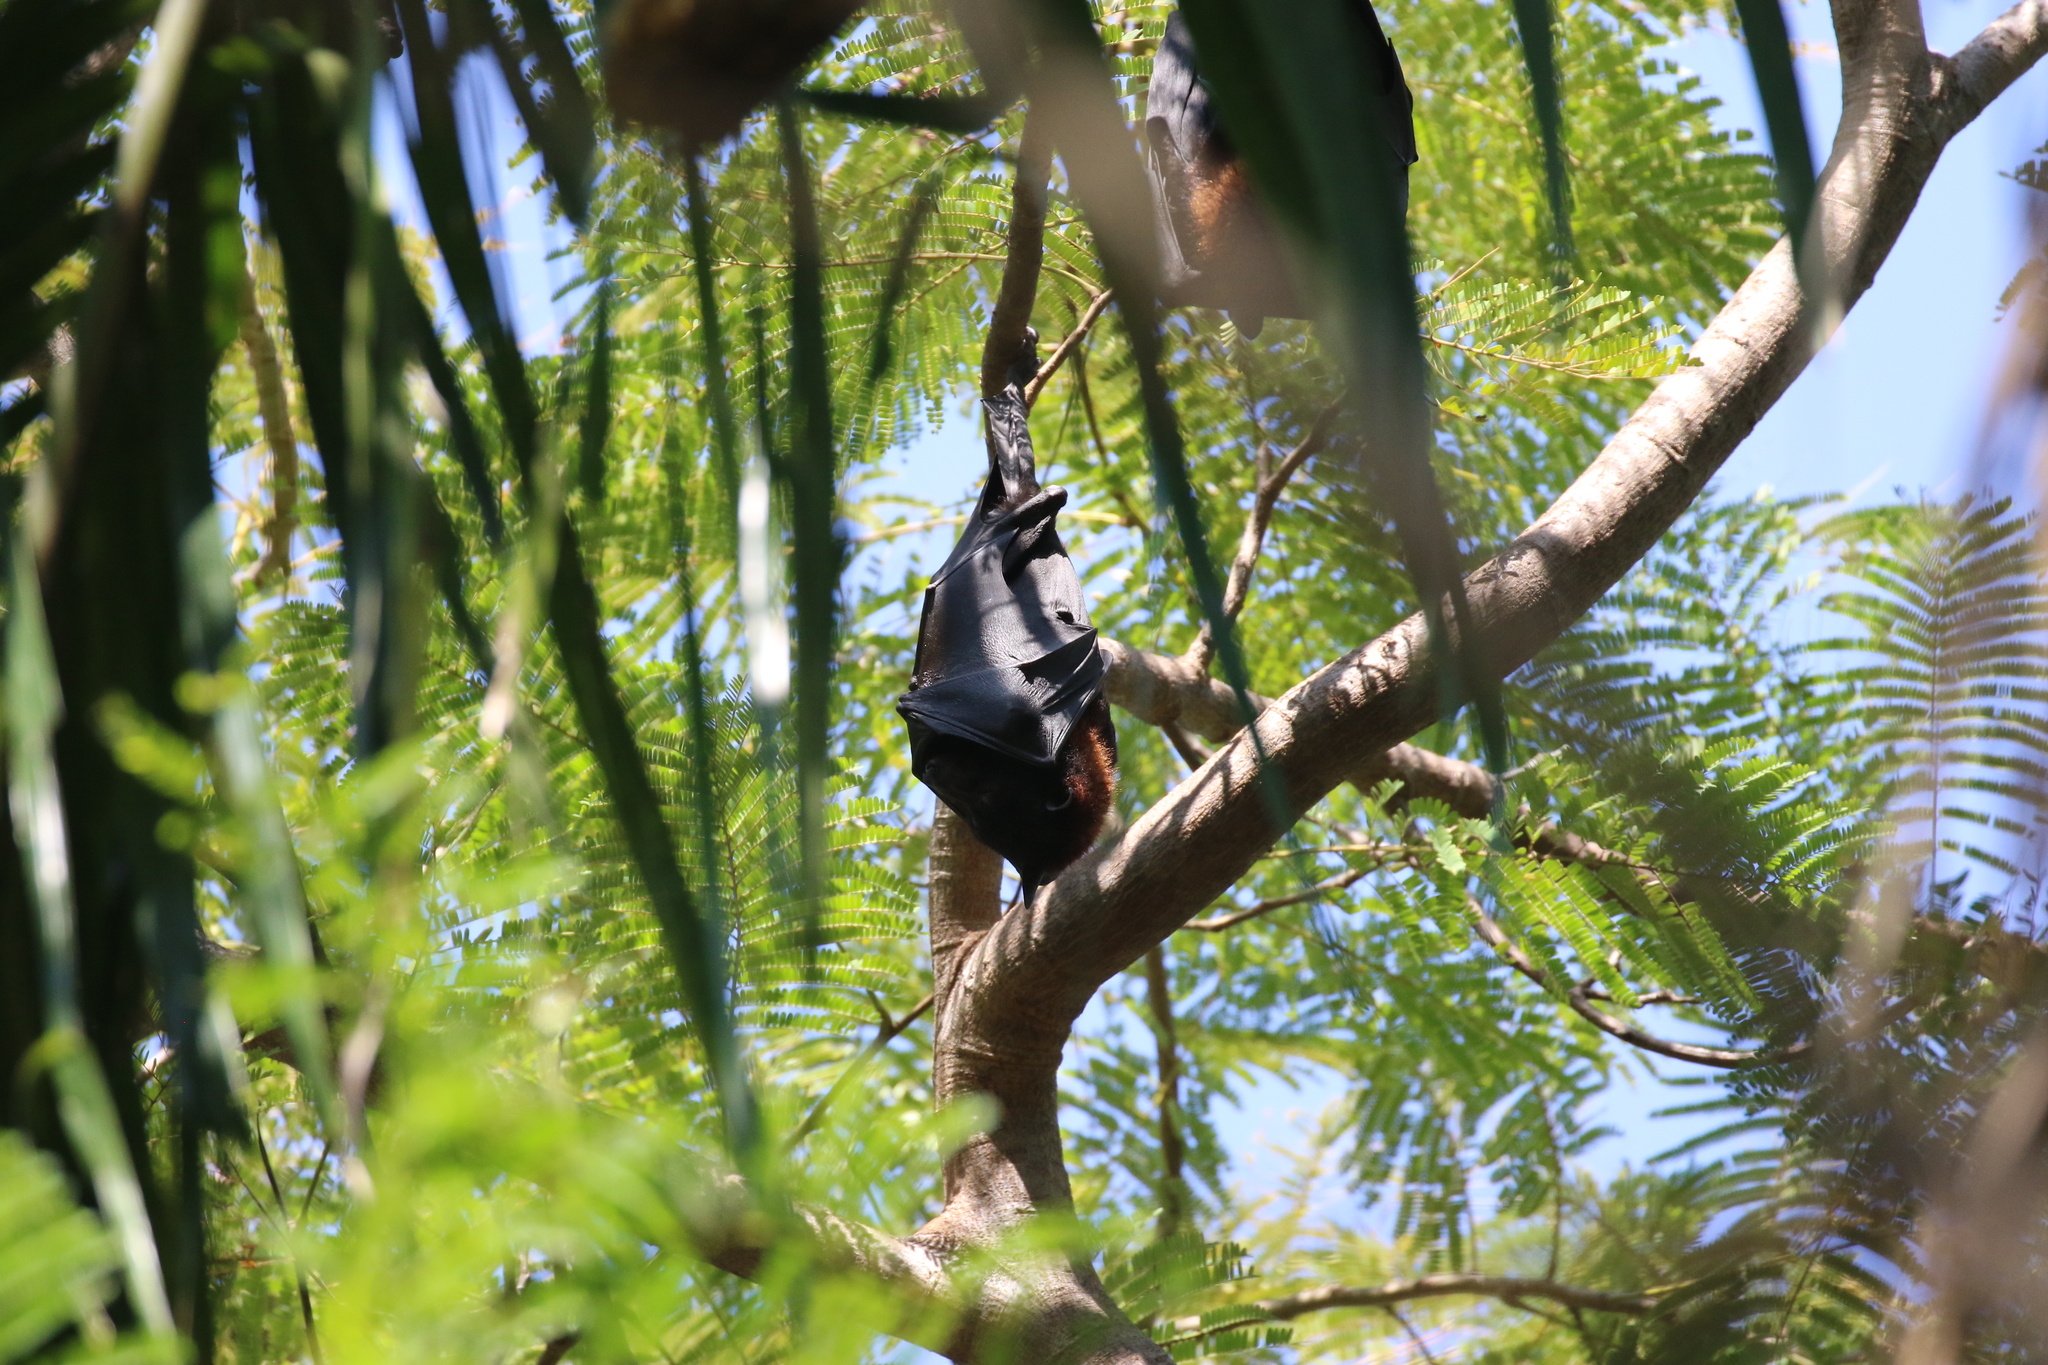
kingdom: Animalia
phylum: Chordata
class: Mammalia
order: Chiroptera
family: Pteropodidae
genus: Pteropus
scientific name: Pteropus alecto
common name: Black flying fox
